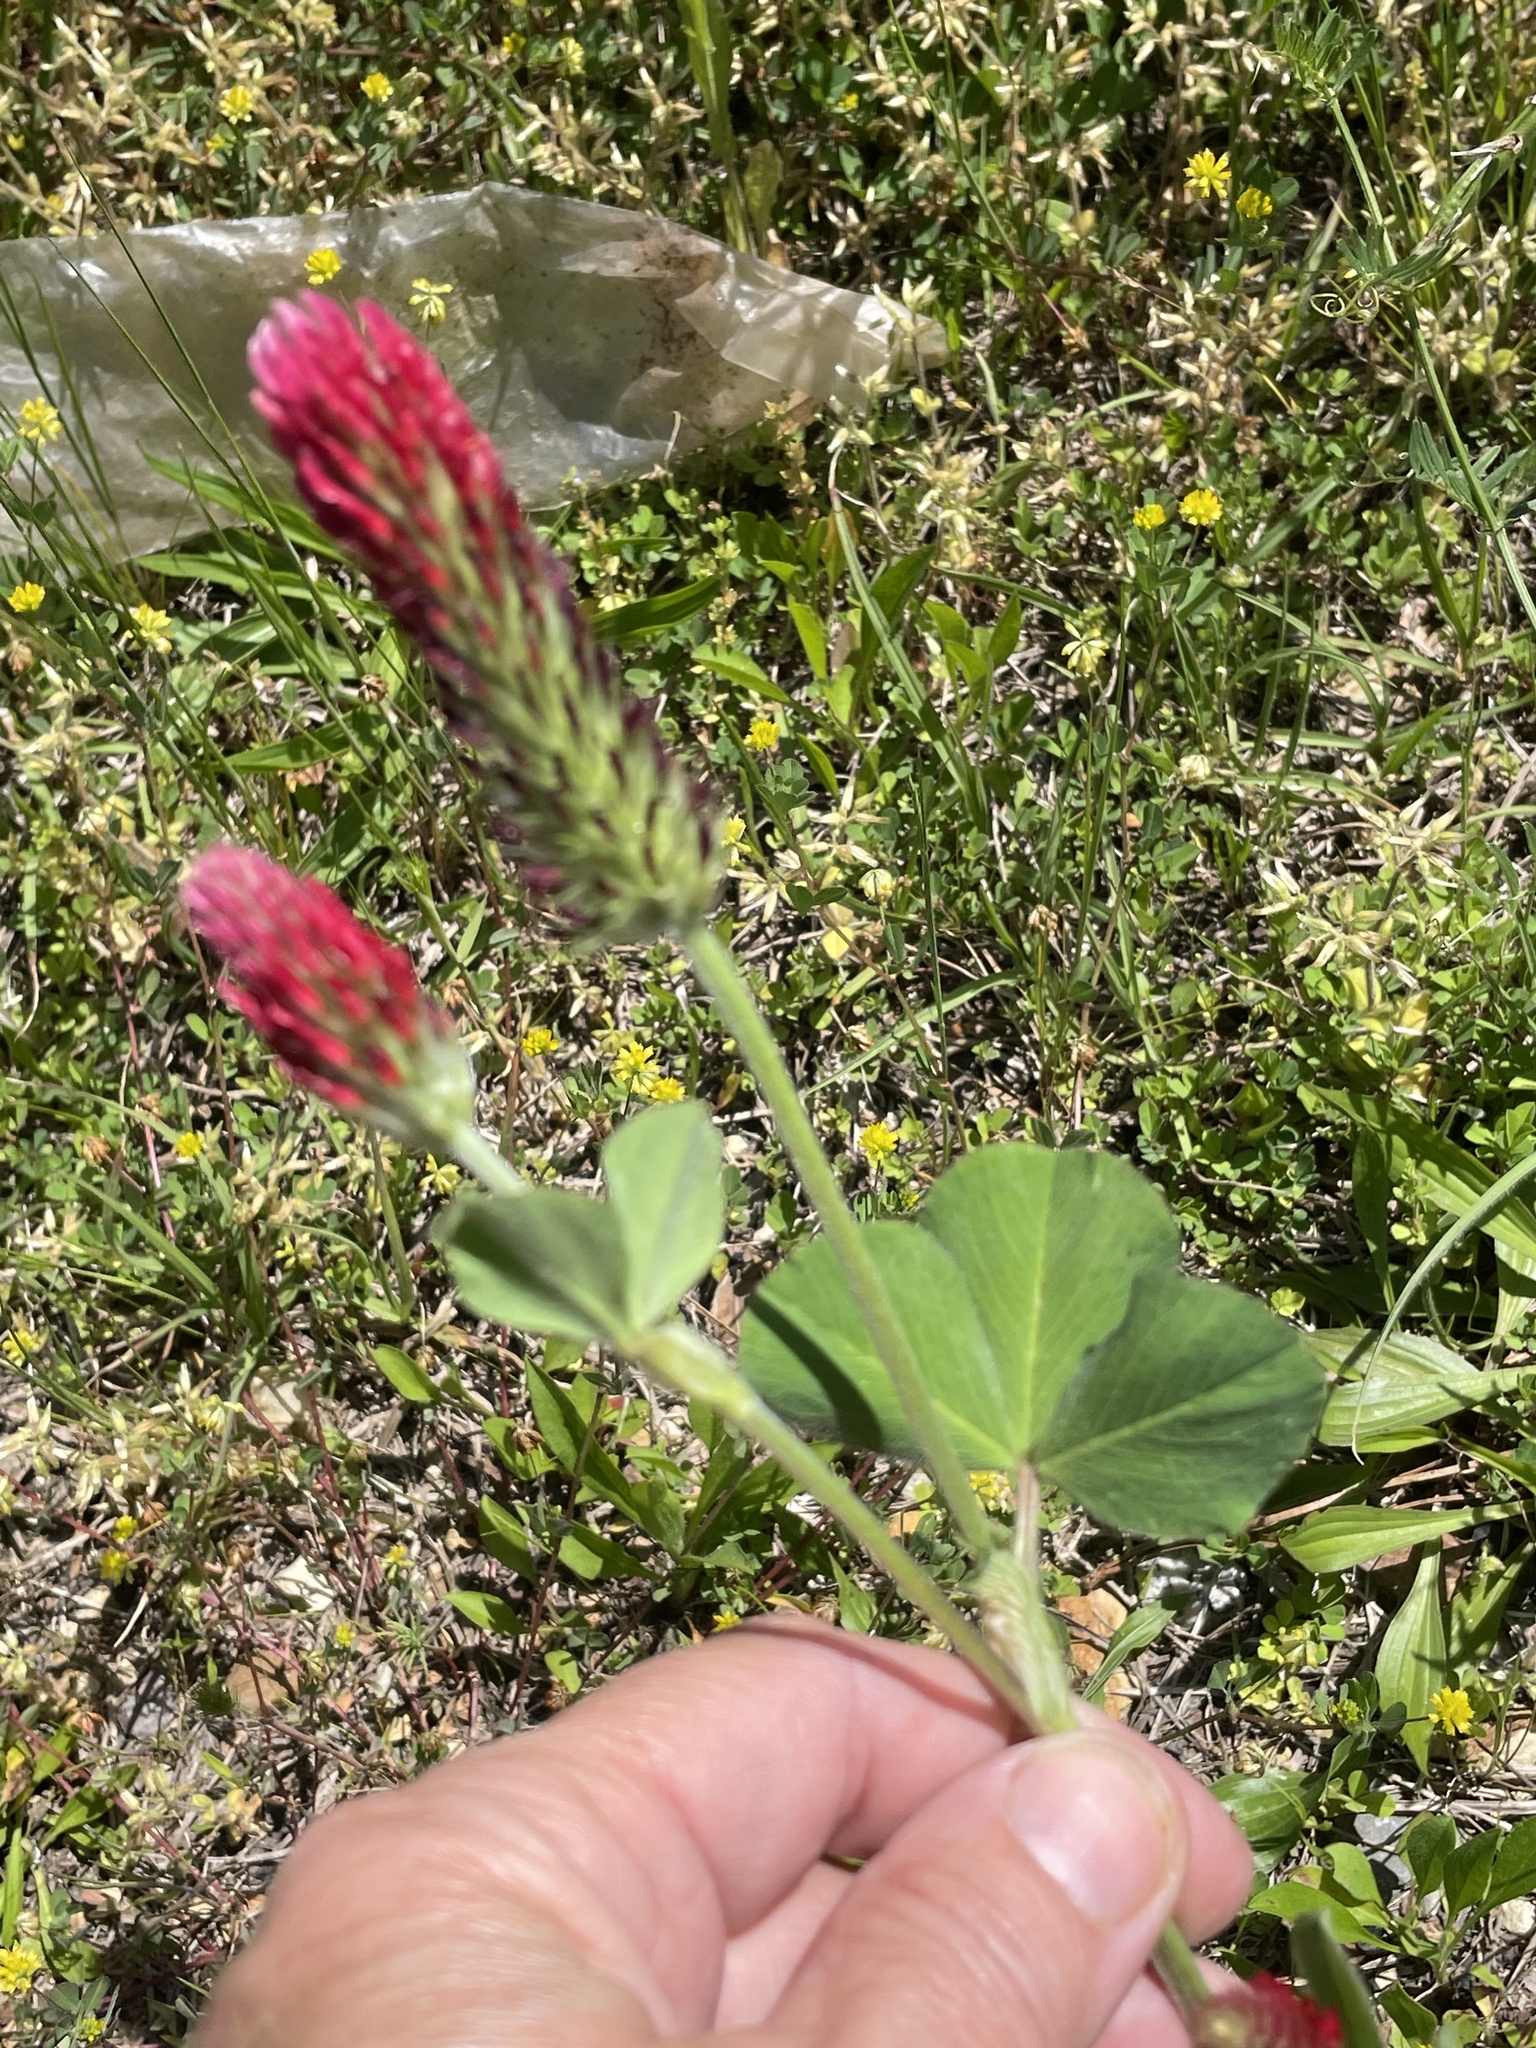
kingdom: Plantae
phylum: Tracheophyta
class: Magnoliopsida
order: Fabales
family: Fabaceae
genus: Trifolium
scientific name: Trifolium incarnatum
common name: Crimson clover
